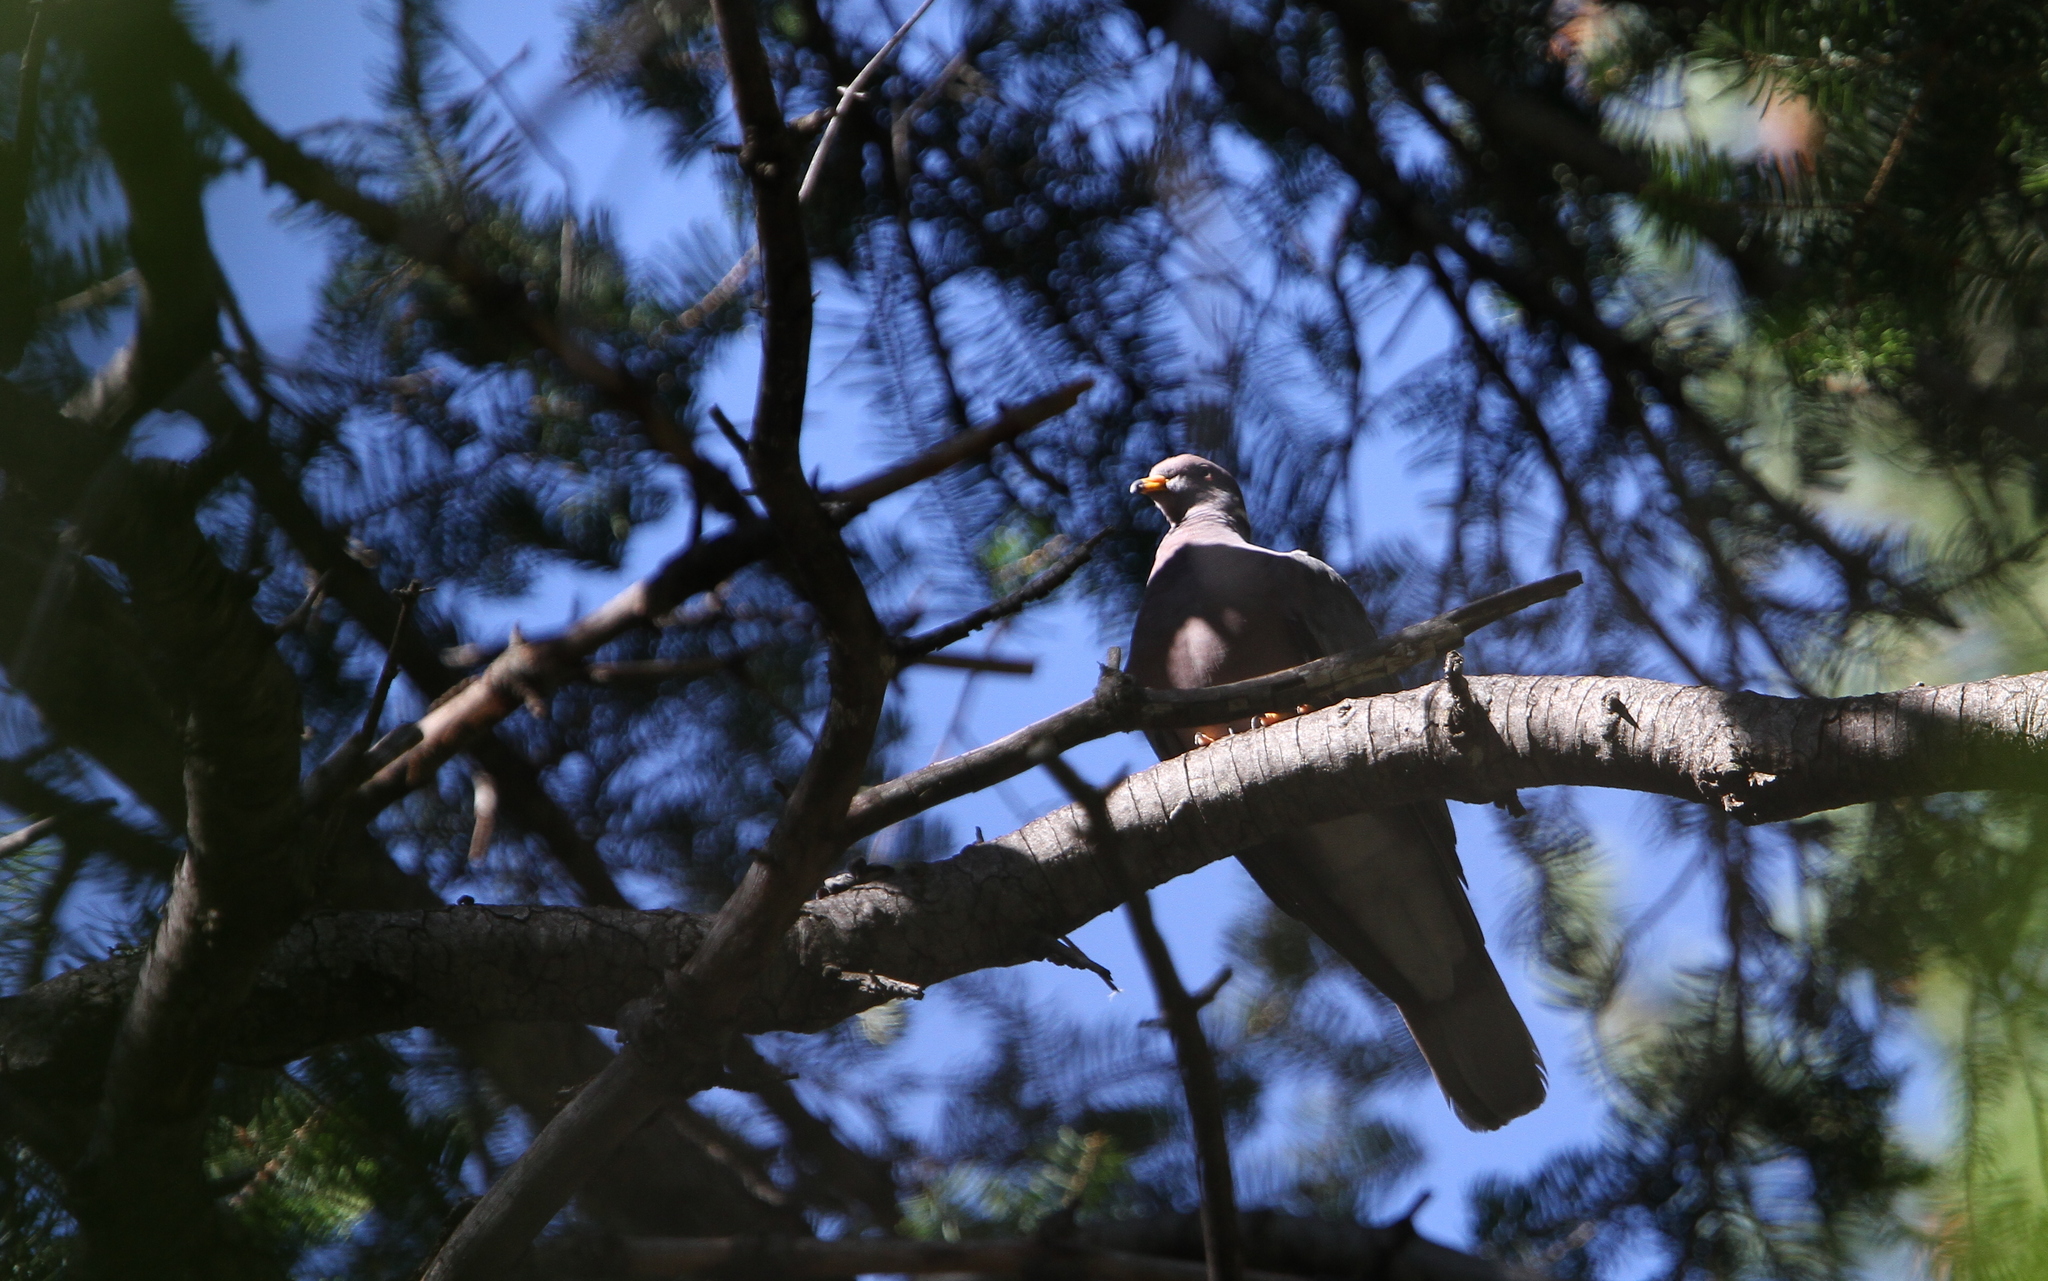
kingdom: Animalia
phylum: Chordata
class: Aves
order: Columbiformes
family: Columbidae
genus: Patagioenas
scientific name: Patagioenas fasciata
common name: Band-tailed pigeon
